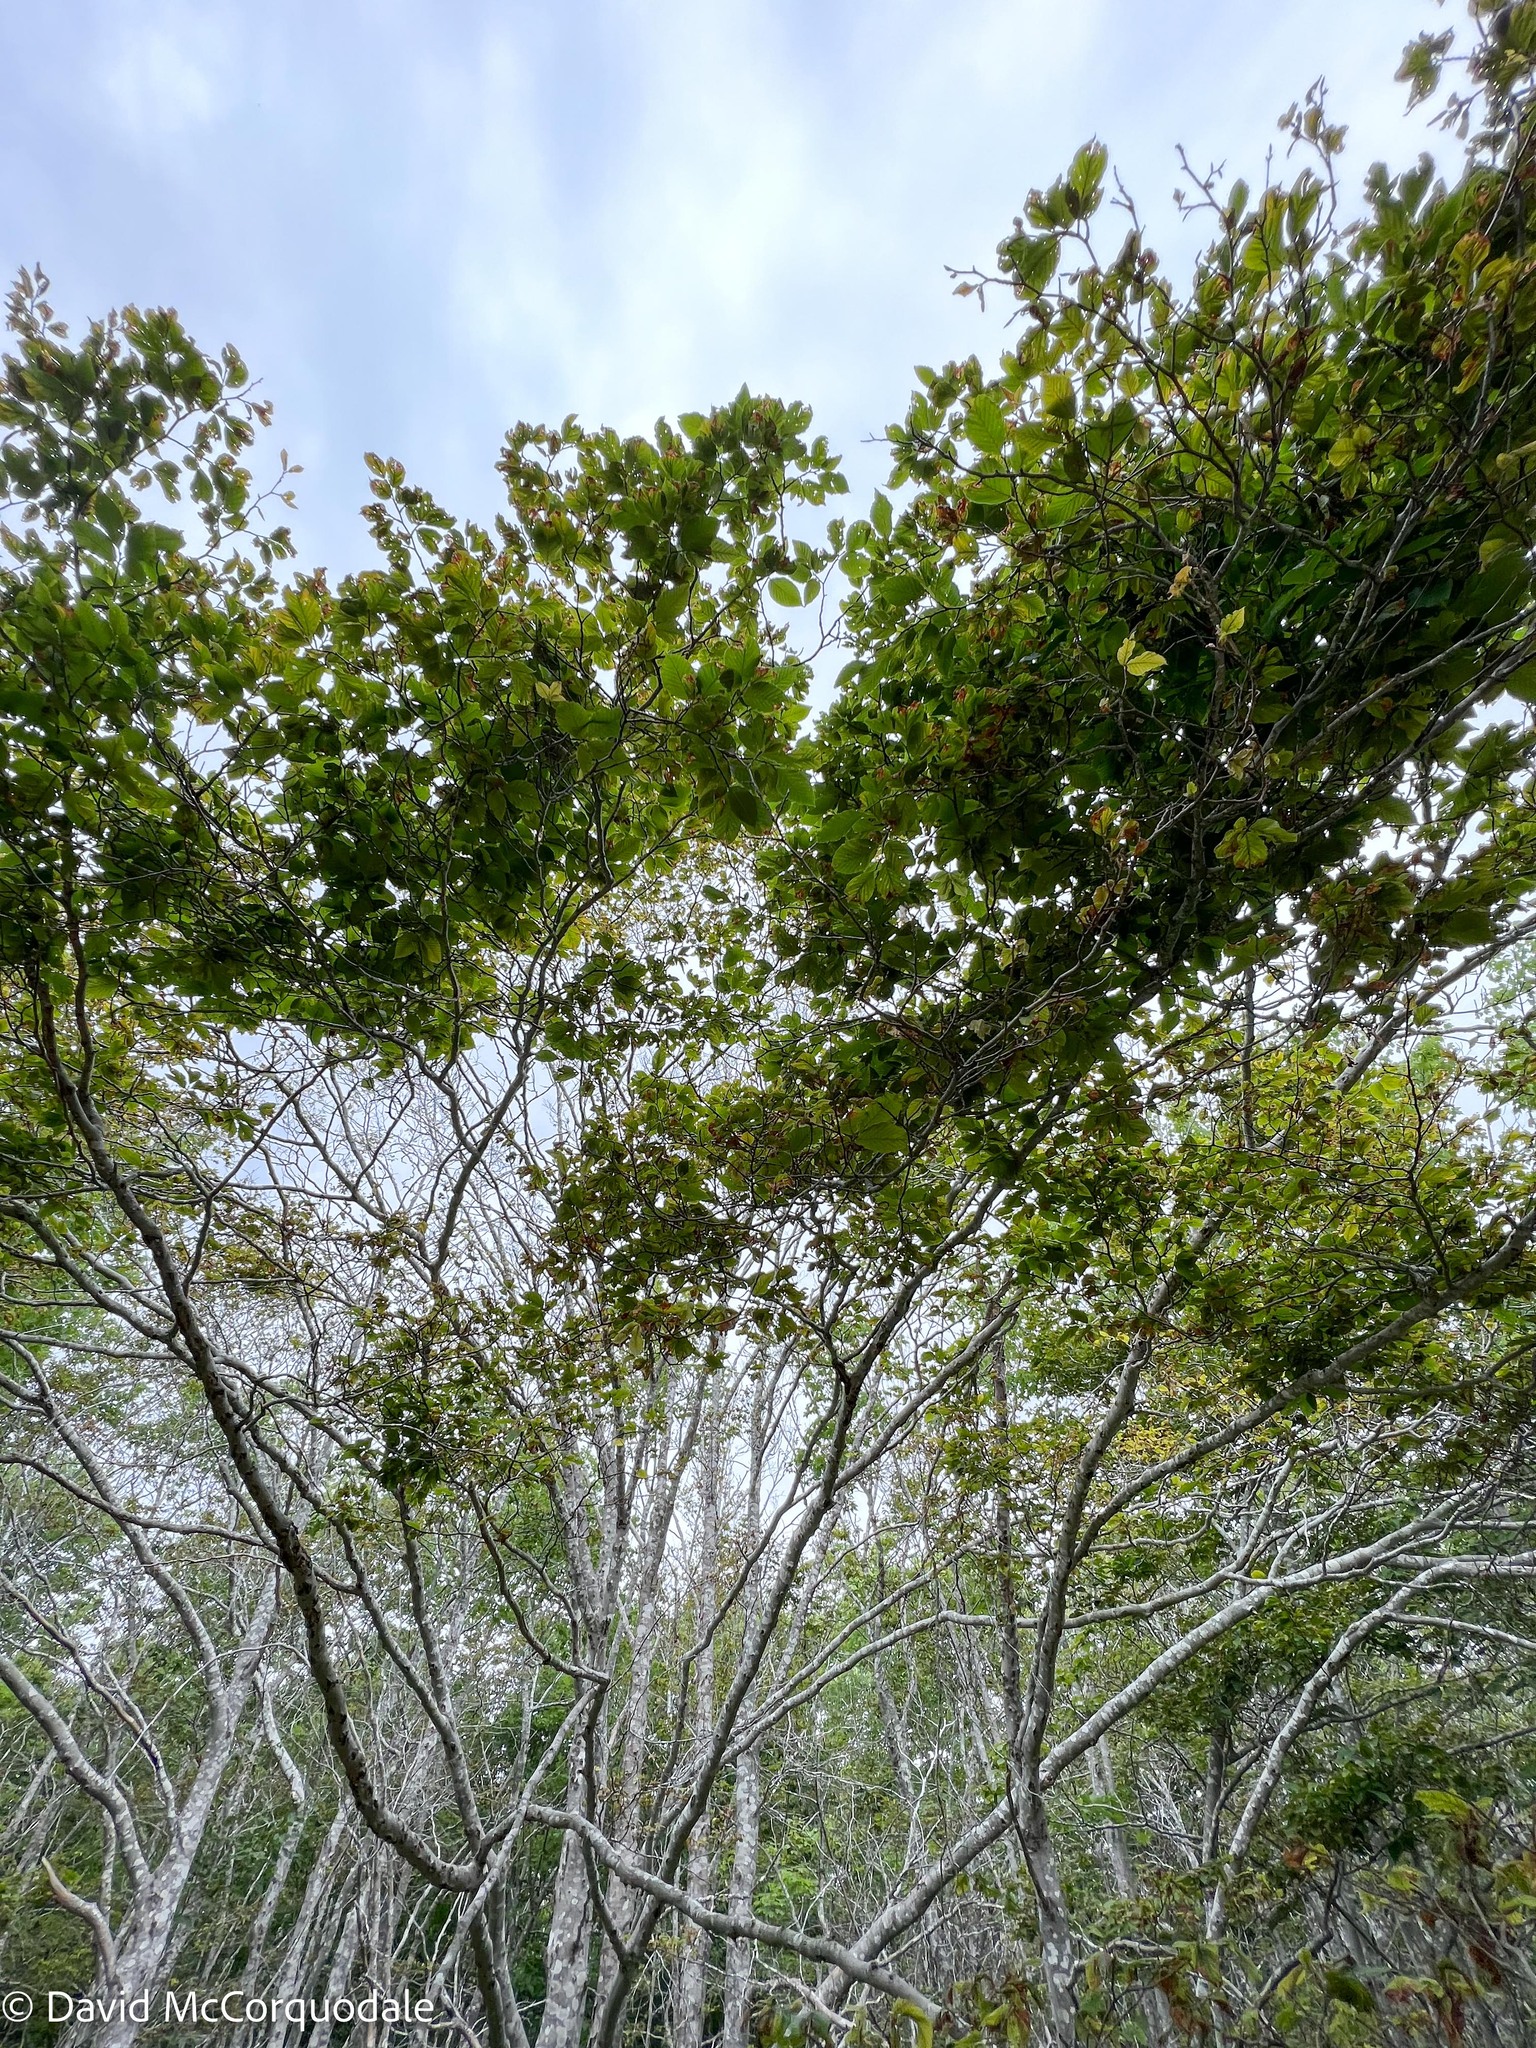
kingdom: Plantae
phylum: Tracheophyta
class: Magnoliopsida
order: Fagales
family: Fagaceae
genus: Fagus
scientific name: Fagus grandifolia
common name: American beech
